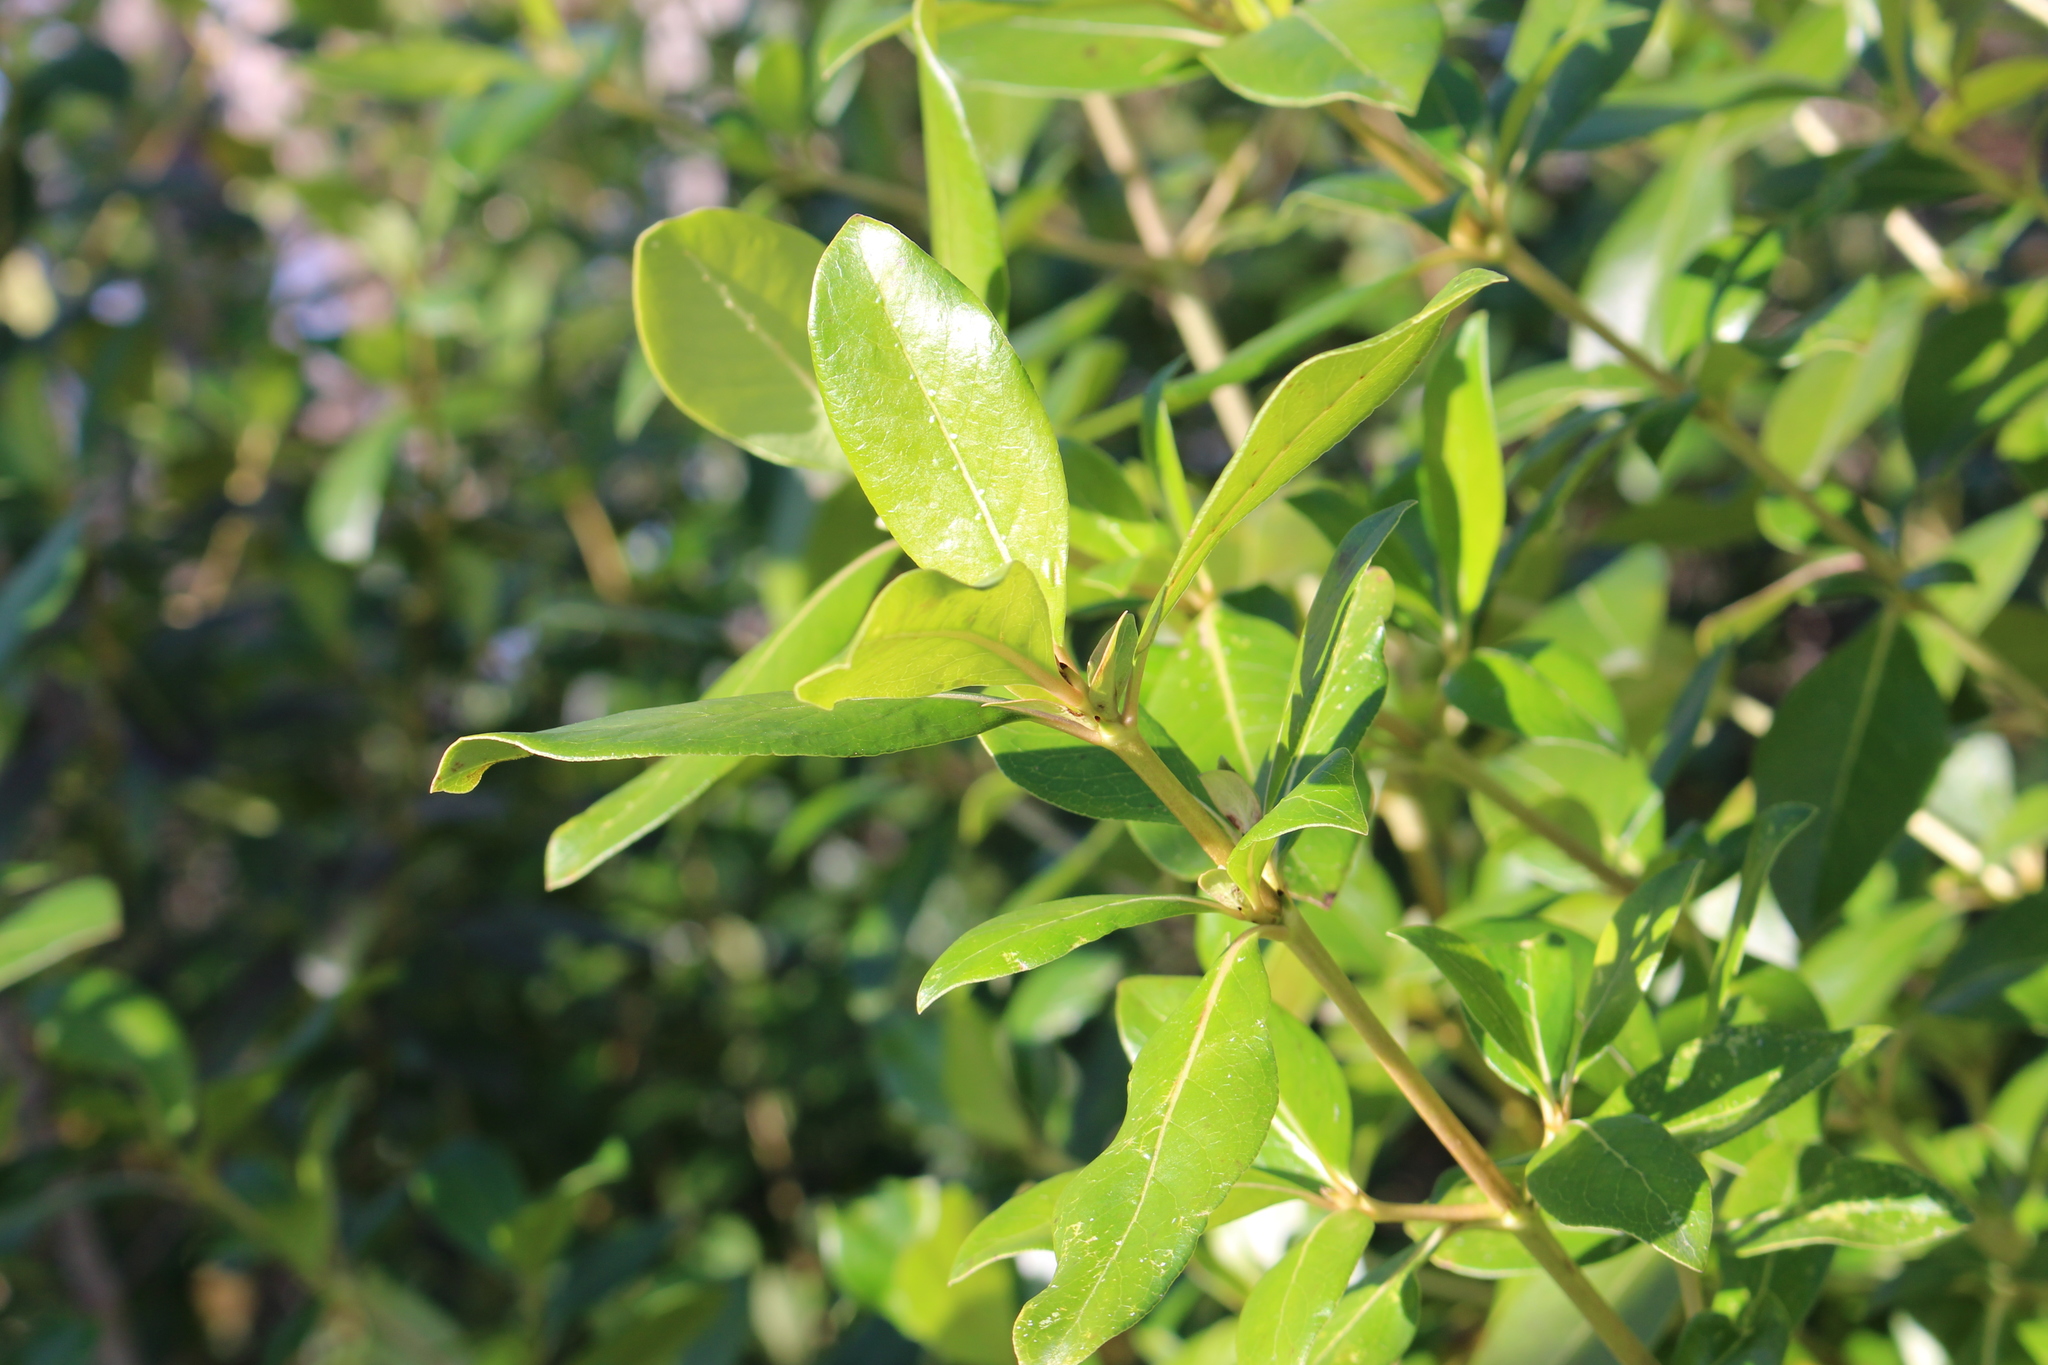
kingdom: Plantae
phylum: Tracheophyta
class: Magnoliopsida
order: Gentianales
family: Rubiaceae
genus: Coprosma
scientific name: Coprosma robusta
